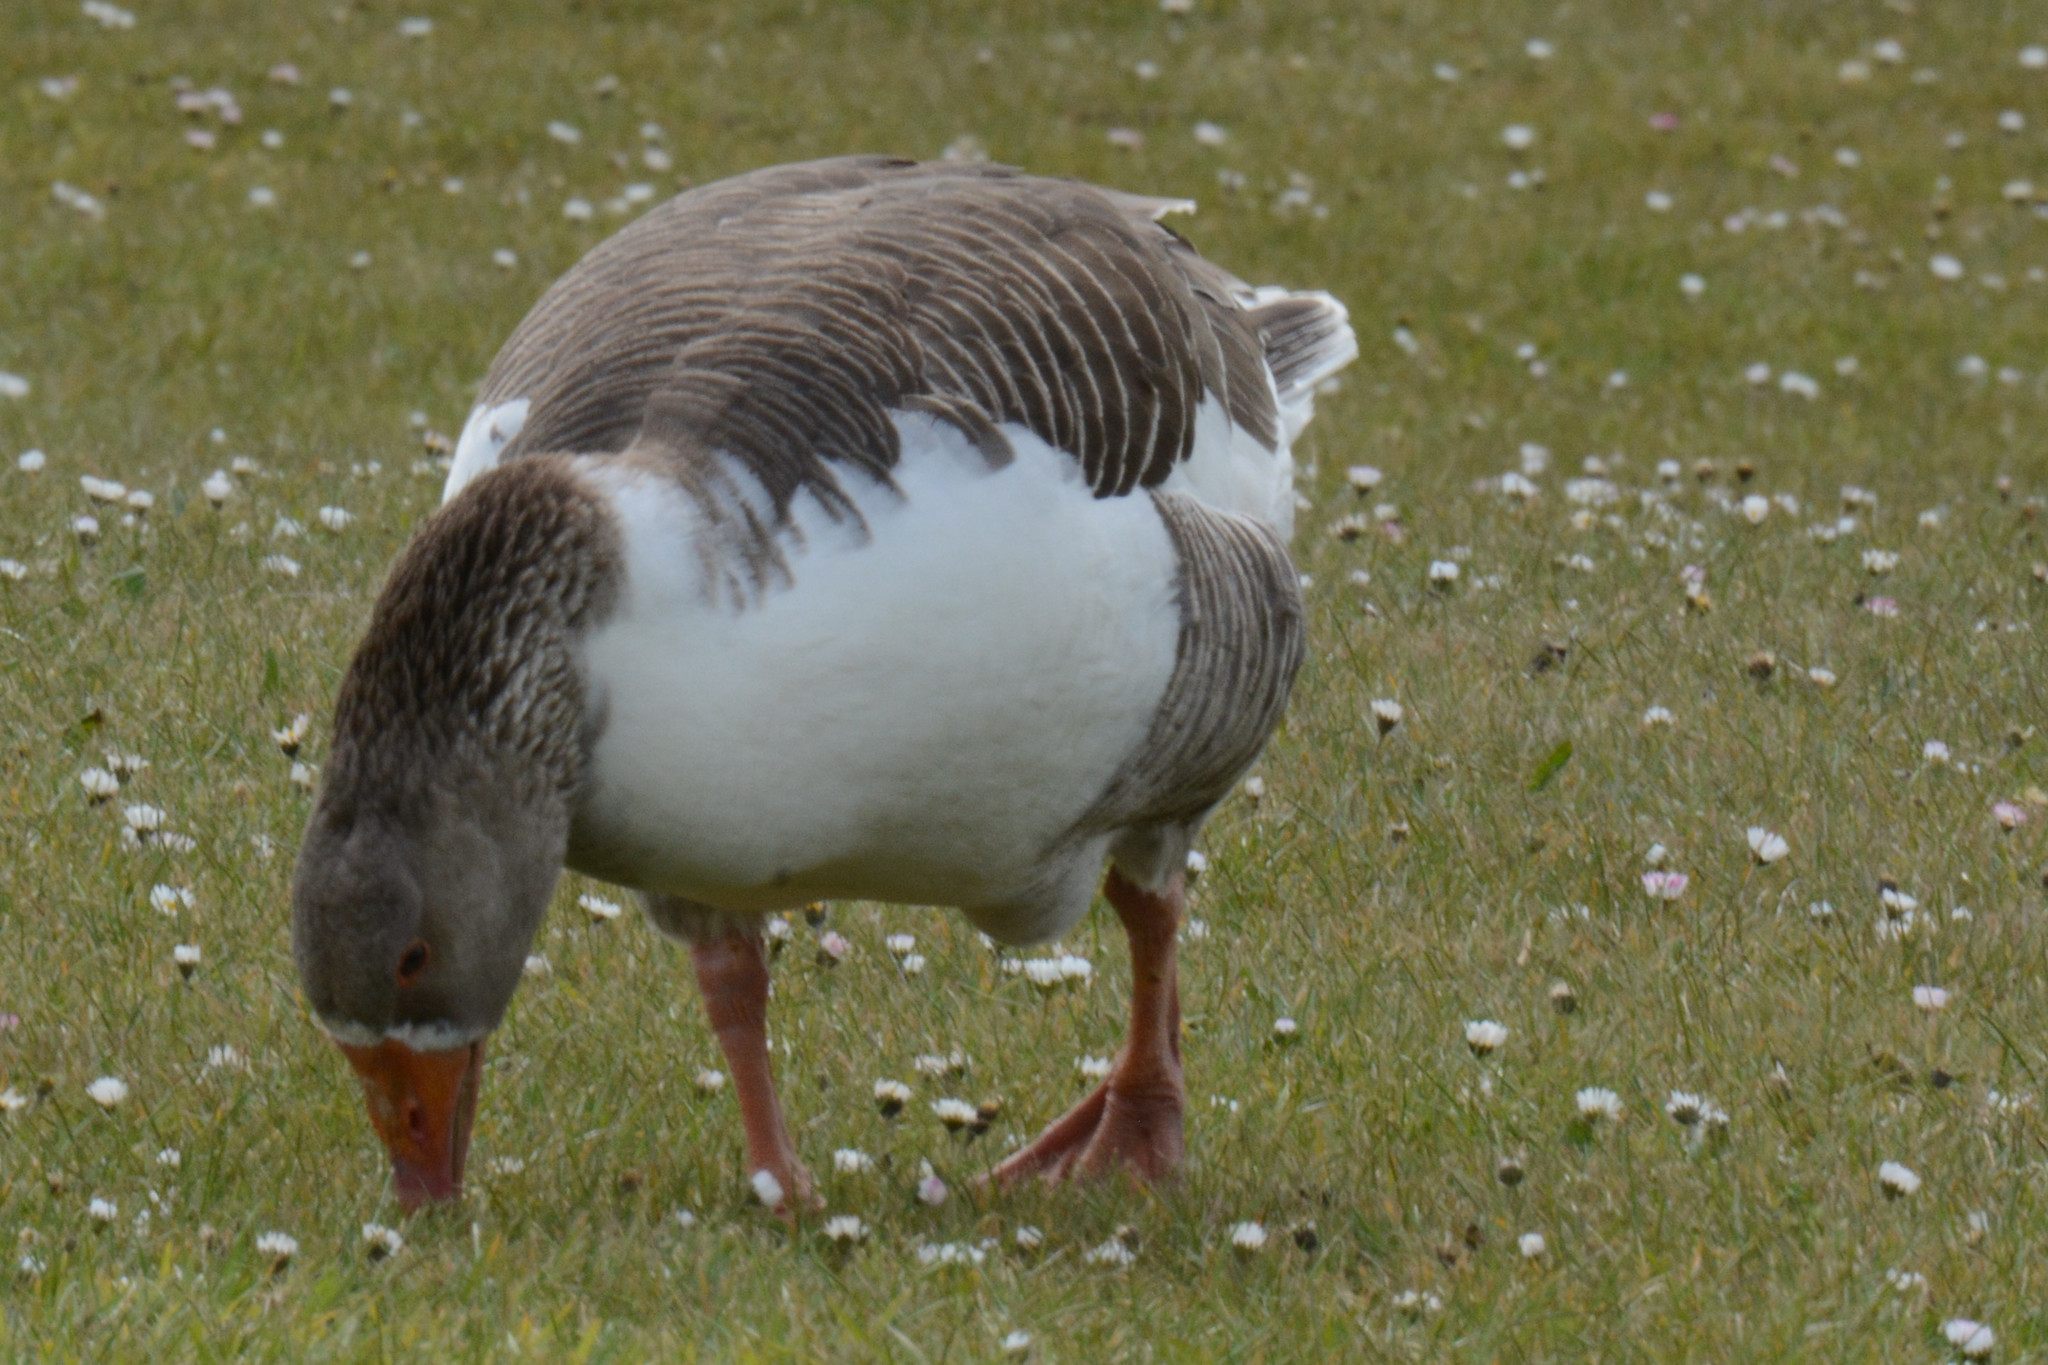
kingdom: Animalia
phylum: Chordata
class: Aves
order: Anseriformes
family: Anatidae
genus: Anser
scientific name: Anser anser
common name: Greylag goose
